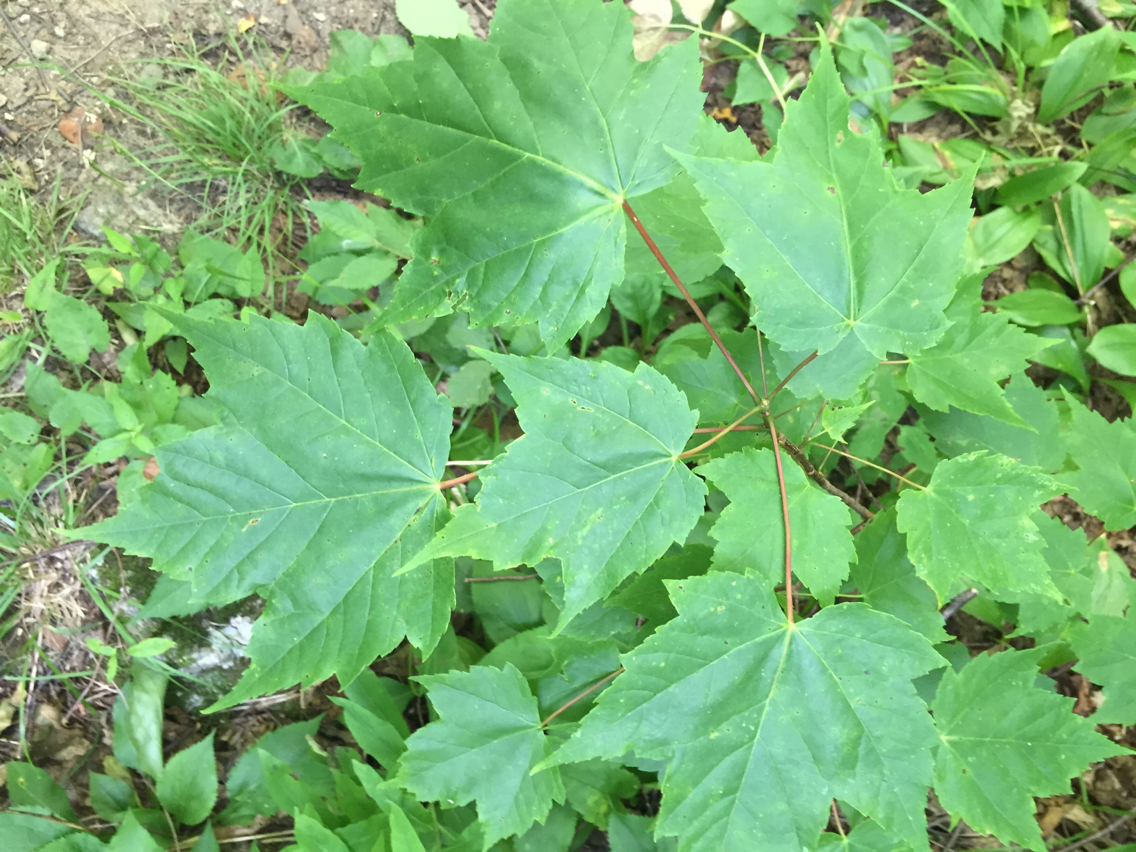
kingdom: Plantae
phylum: Tracheophyta
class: Magnoliopsida
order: Sapindales
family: Sapindaceae
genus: Acer
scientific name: Acer rubrum
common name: Red maple
